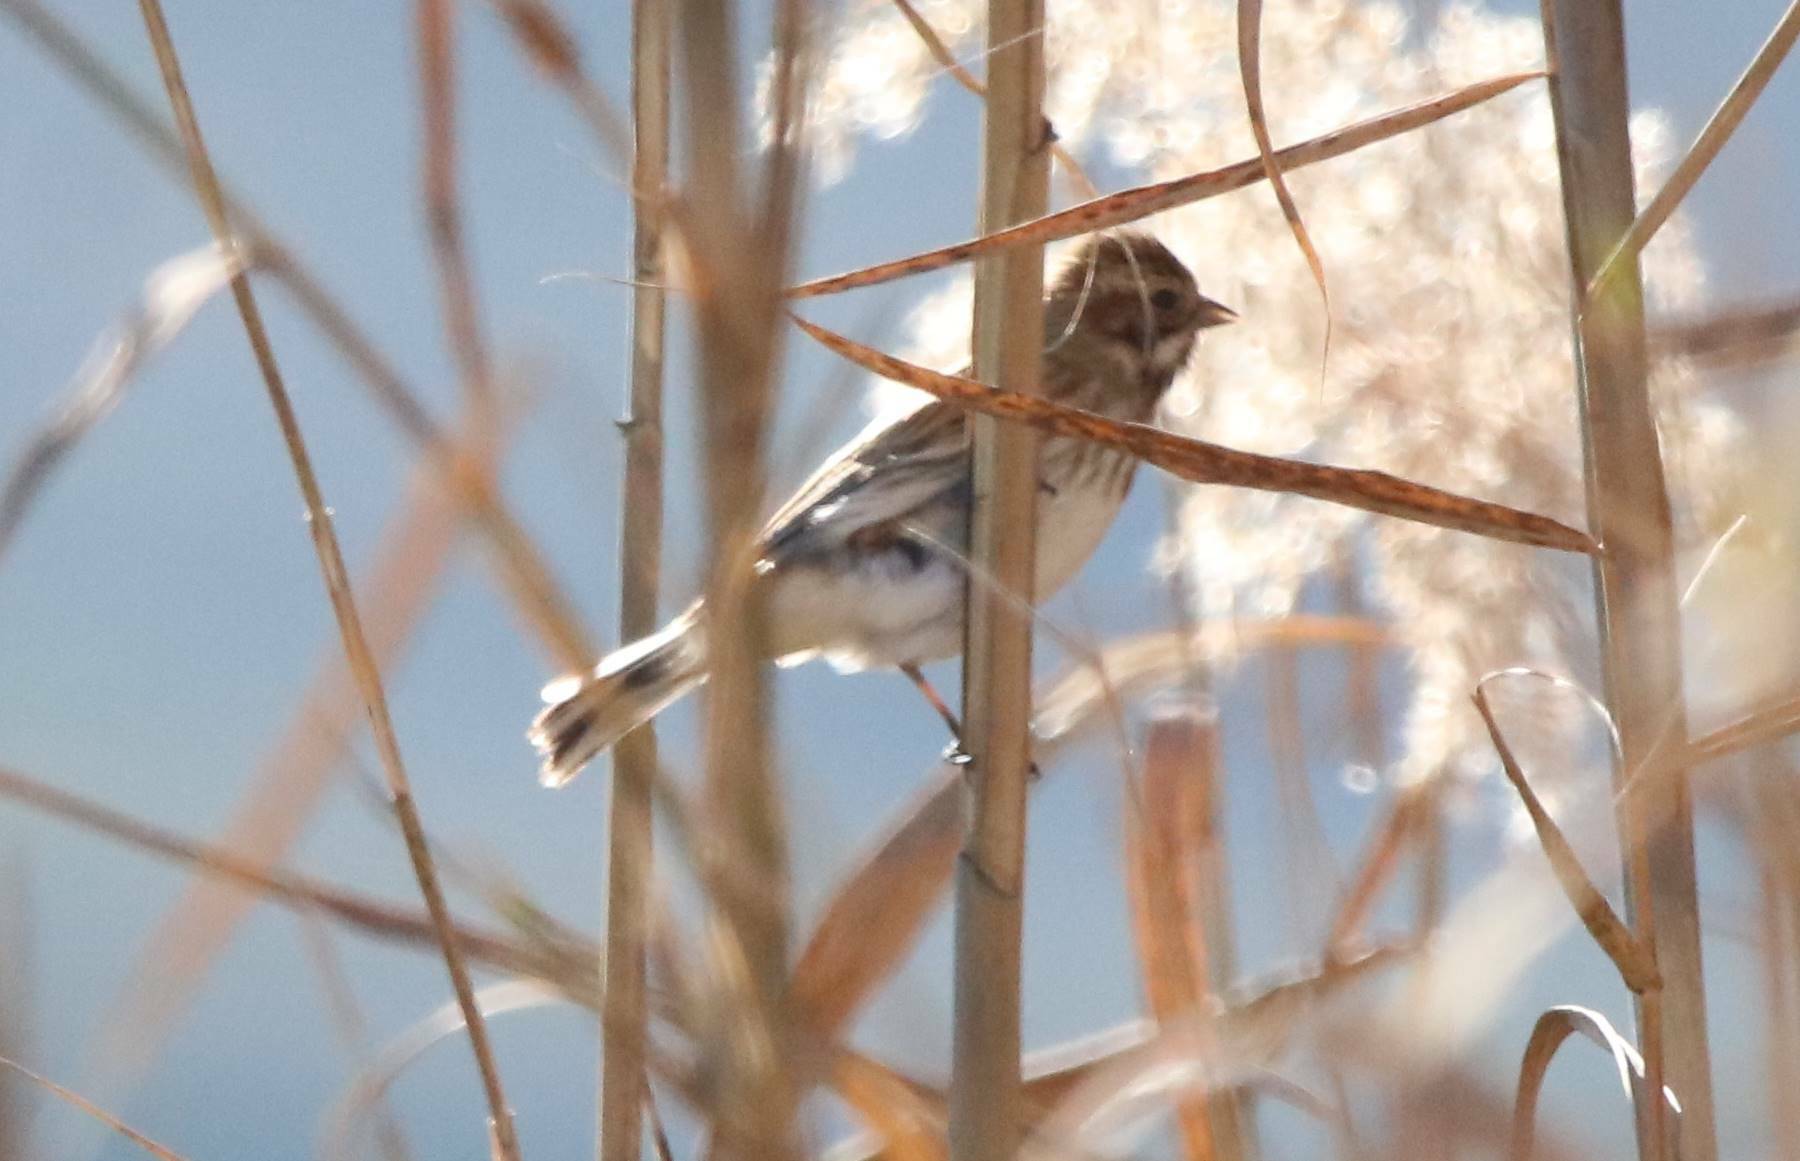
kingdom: Animalia
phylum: Chordata
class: Aves
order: Passeriformes
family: Emberizidae
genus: Emberiza
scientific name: Emberiza schoeniclus
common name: Reed bunting
